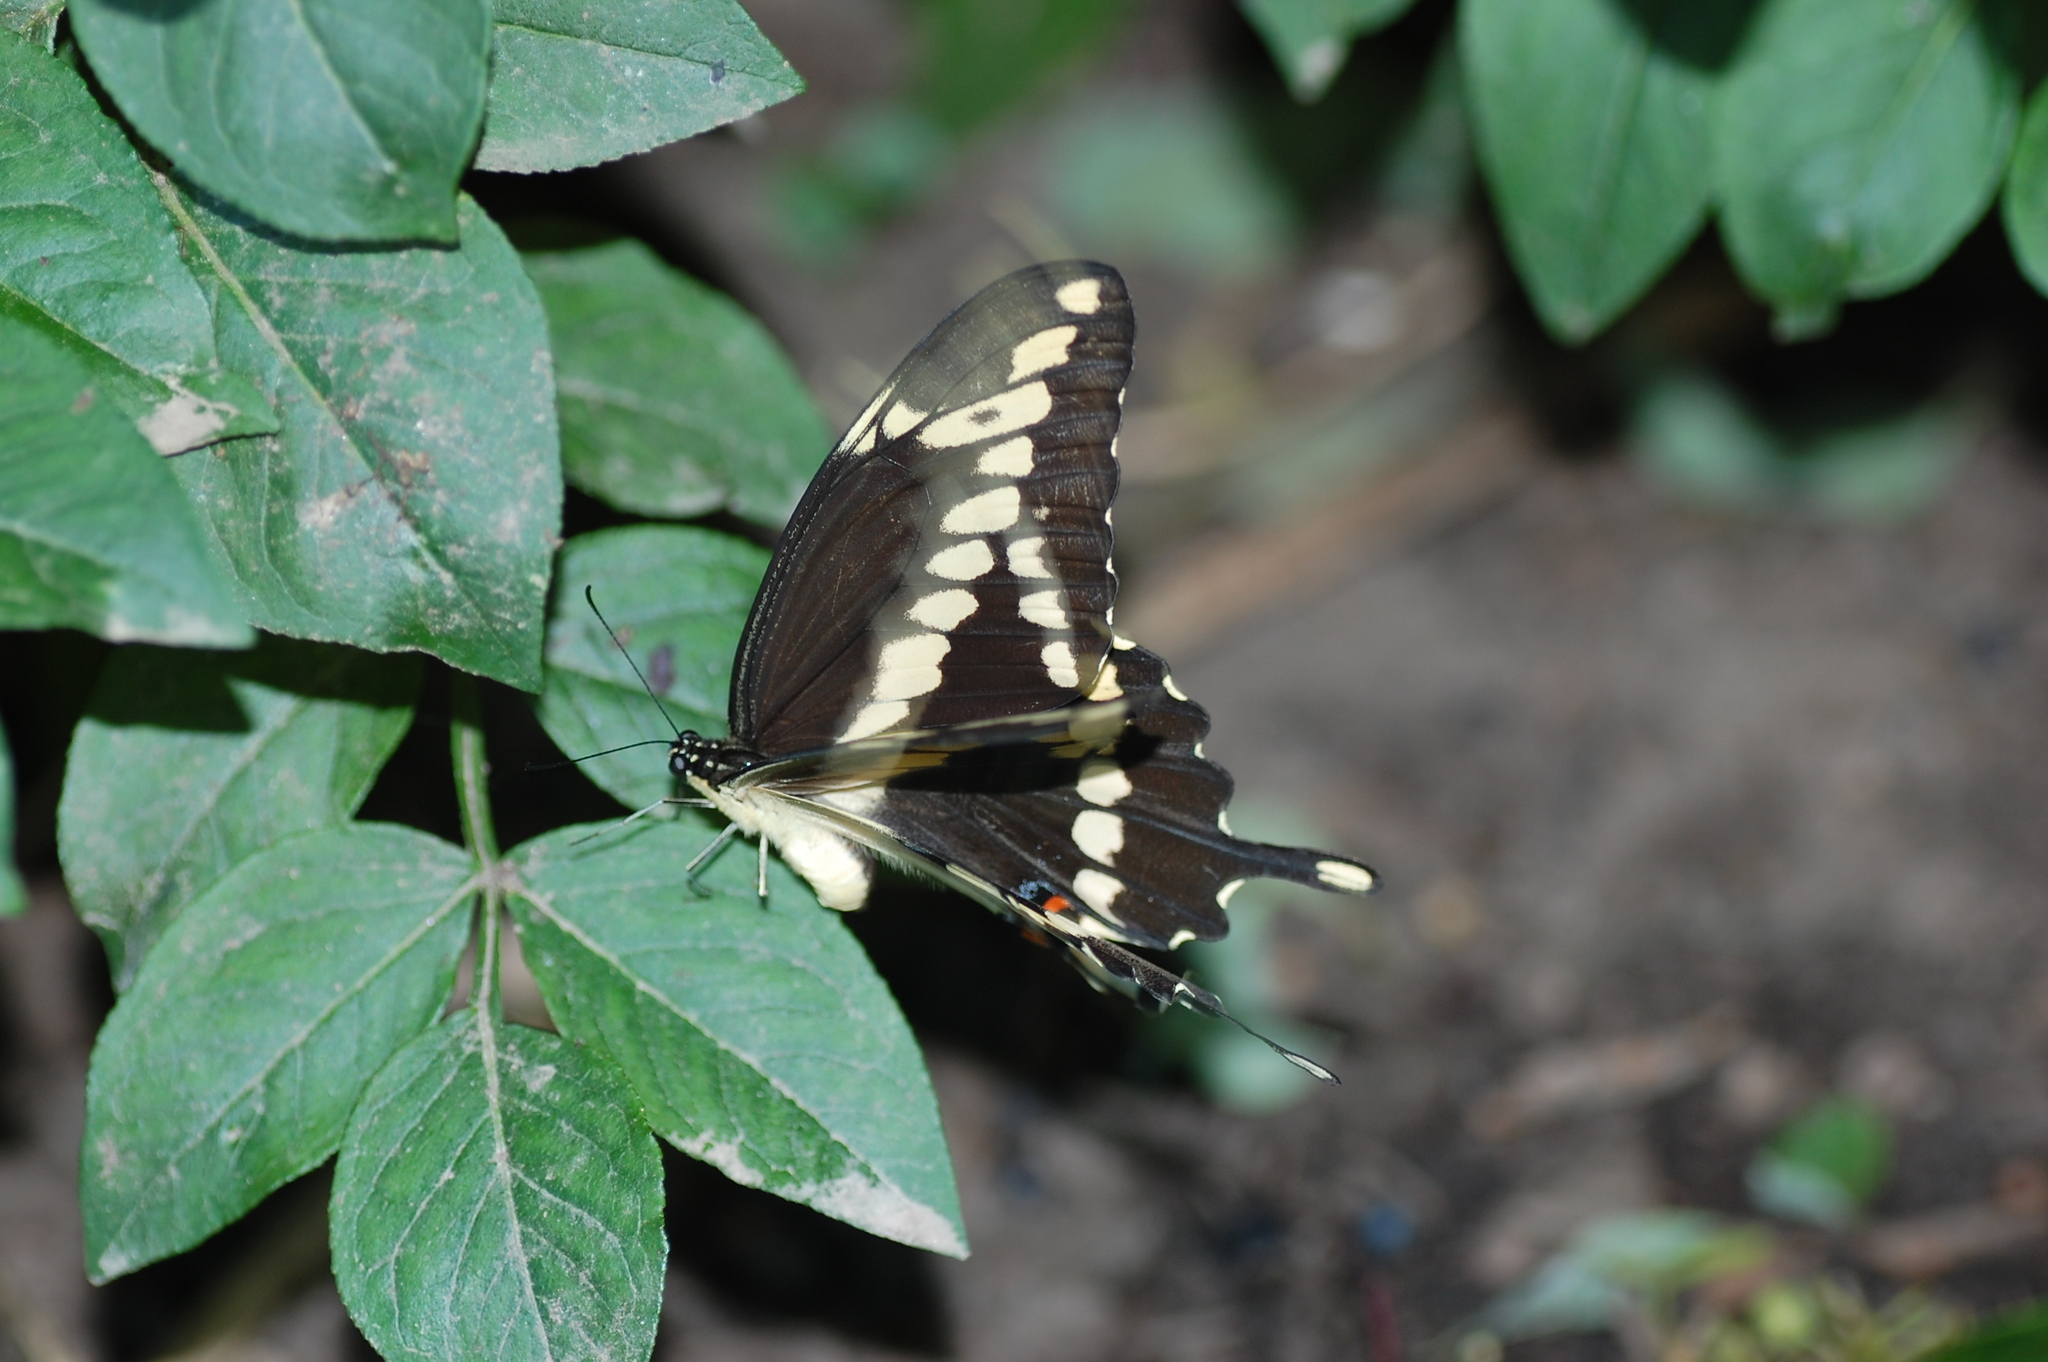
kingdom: Animalia
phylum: Arthropoda
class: Insecta
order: Lepidoptera
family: Papilionidae
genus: Papilio
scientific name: Papilio cresphontes
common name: Giant swallowtail
